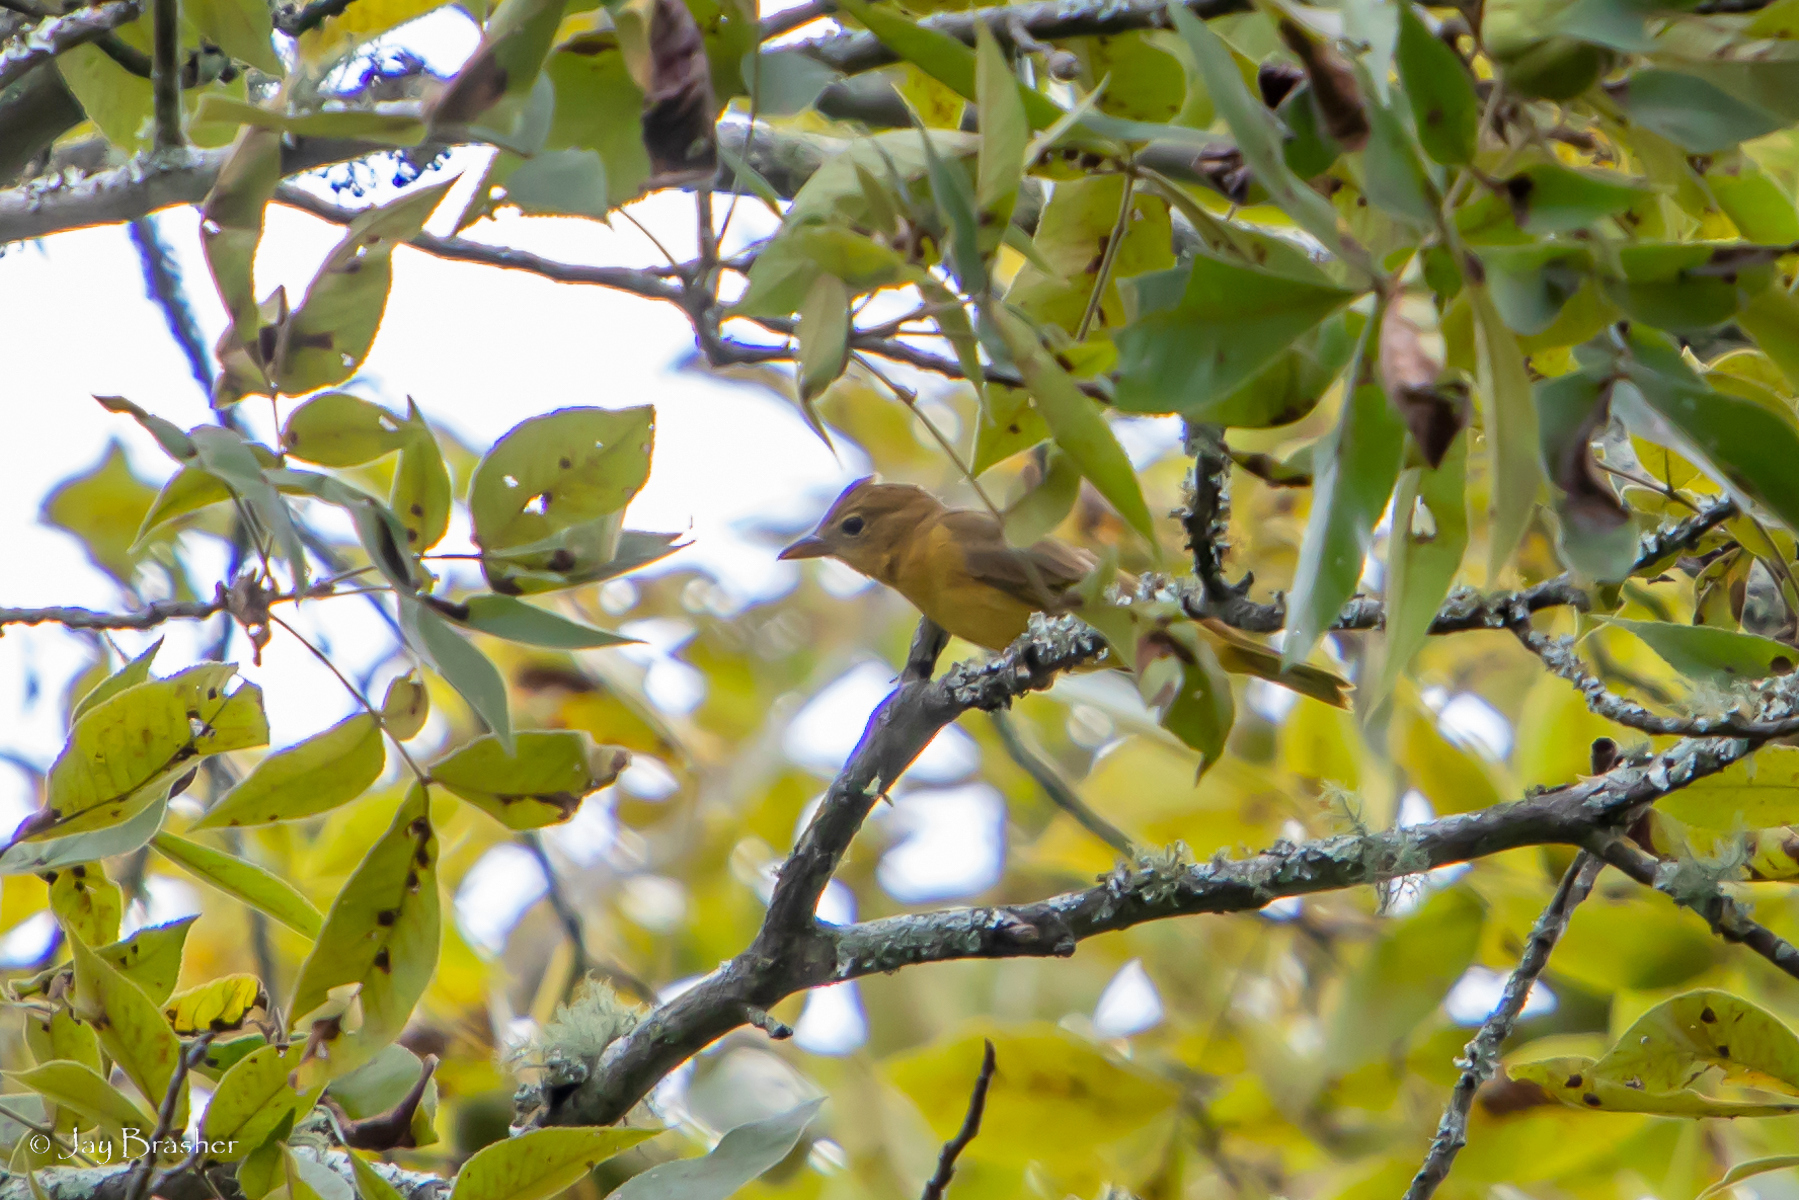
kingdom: Animalia
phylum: Chordata
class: Aves
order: Passeriformes
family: Cardinalidae
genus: Piranga
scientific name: Piranga rubra
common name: Summer tanager
